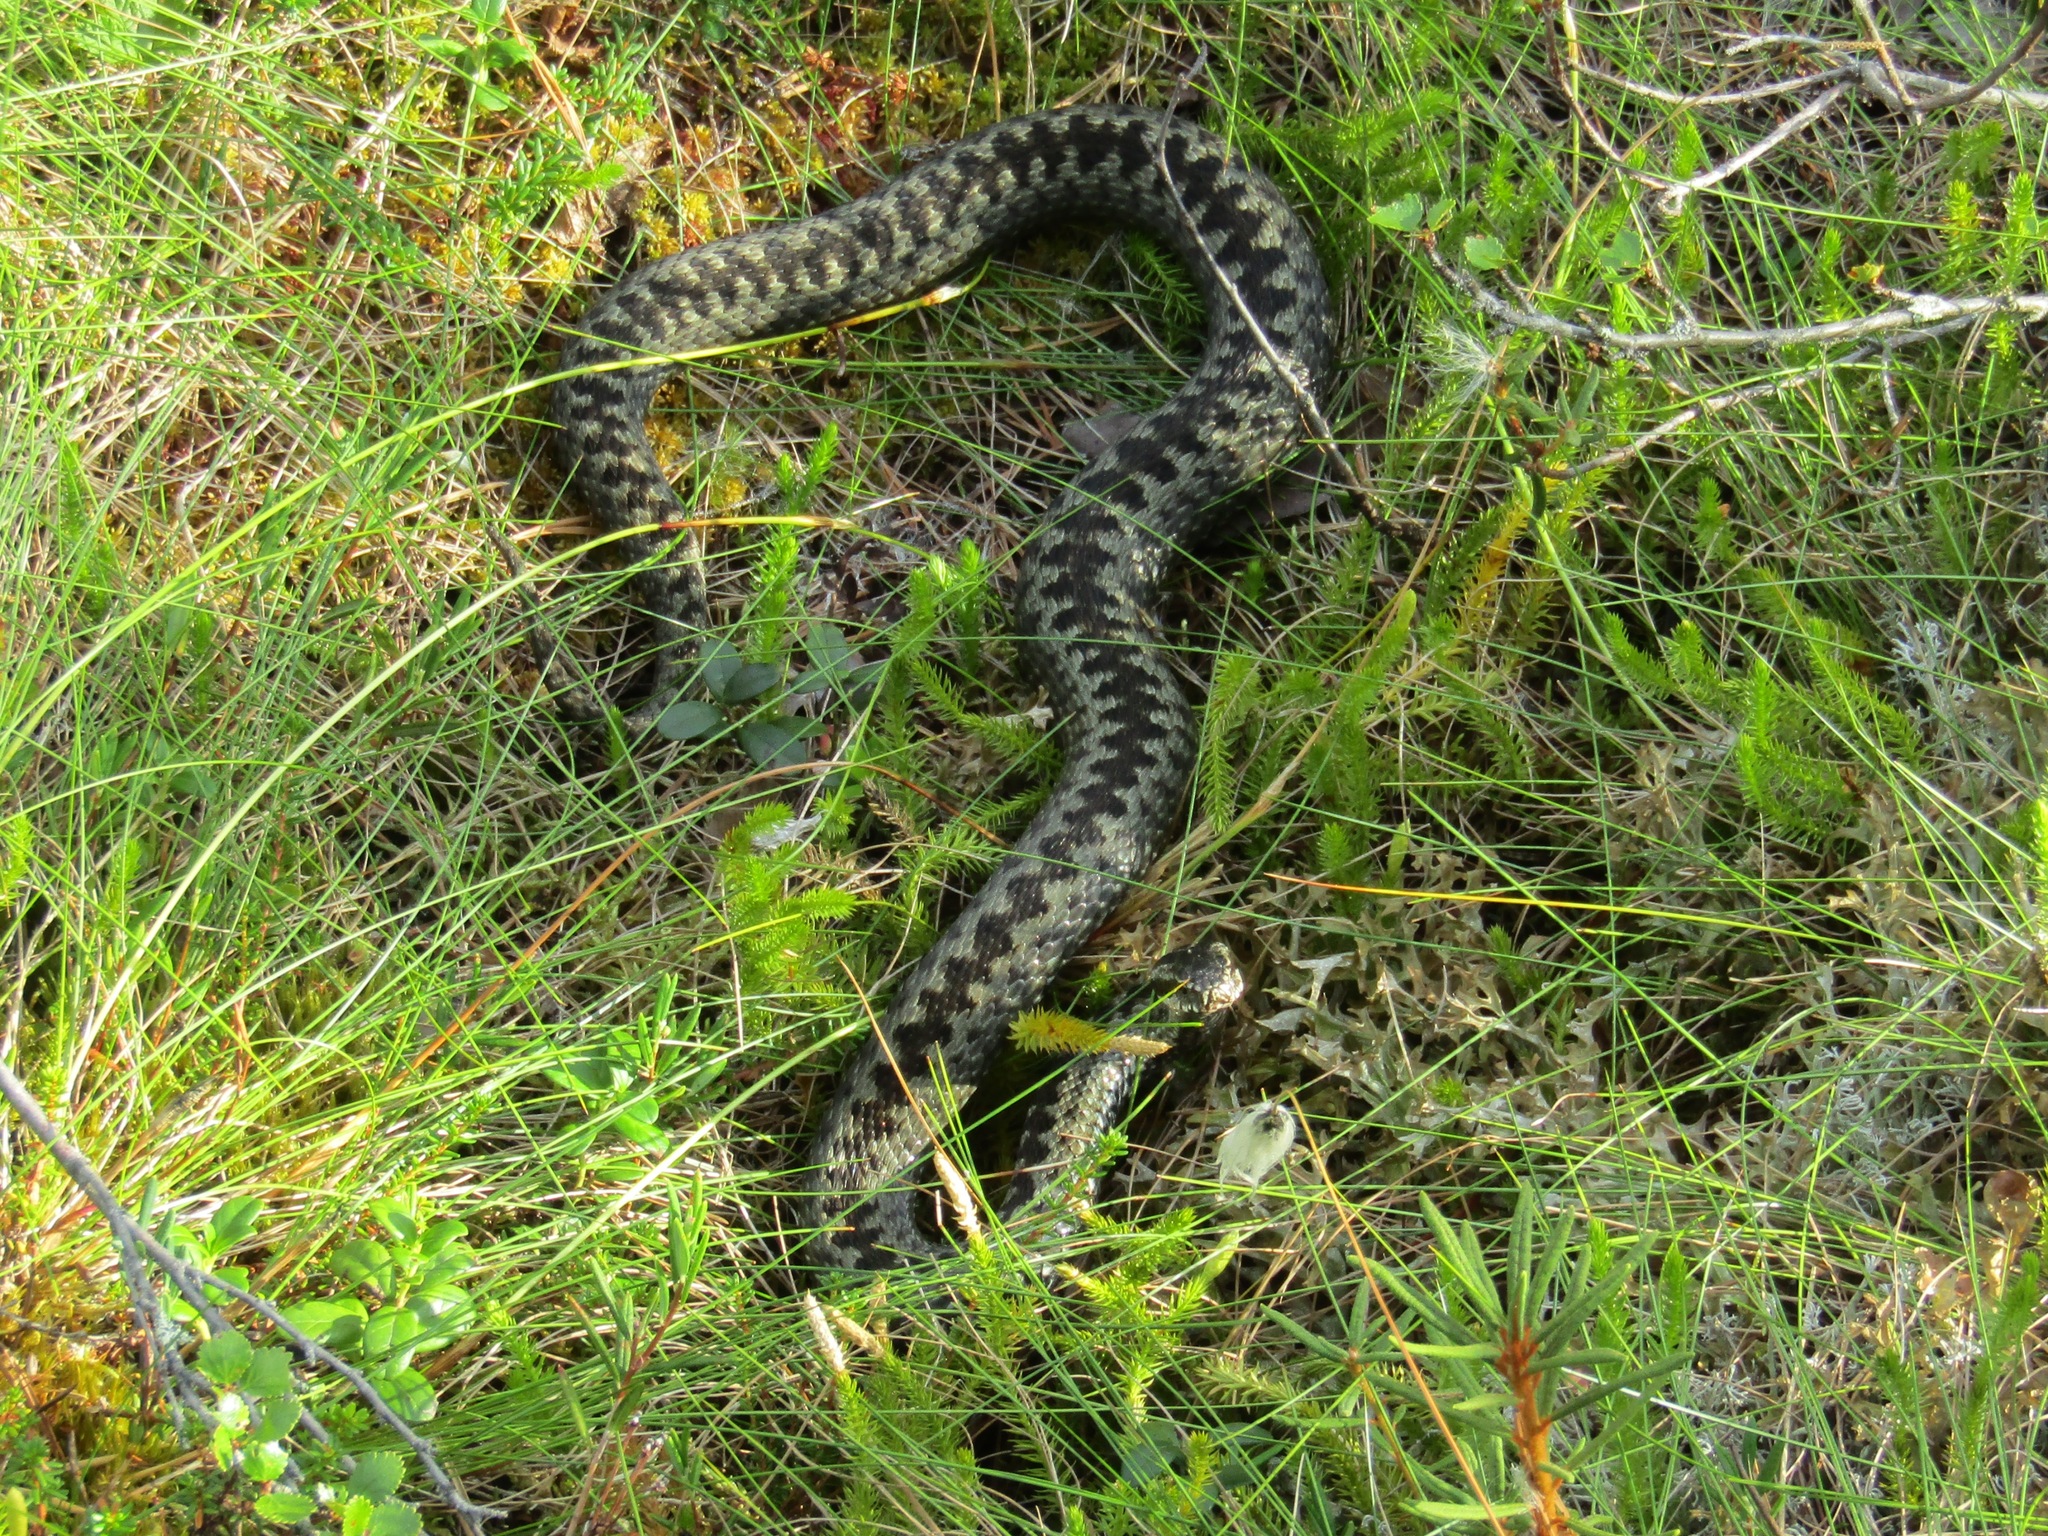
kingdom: Animalia
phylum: Chordata
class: Squamata
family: Viperidae
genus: Vipera
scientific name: Vipera berus
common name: Adder
